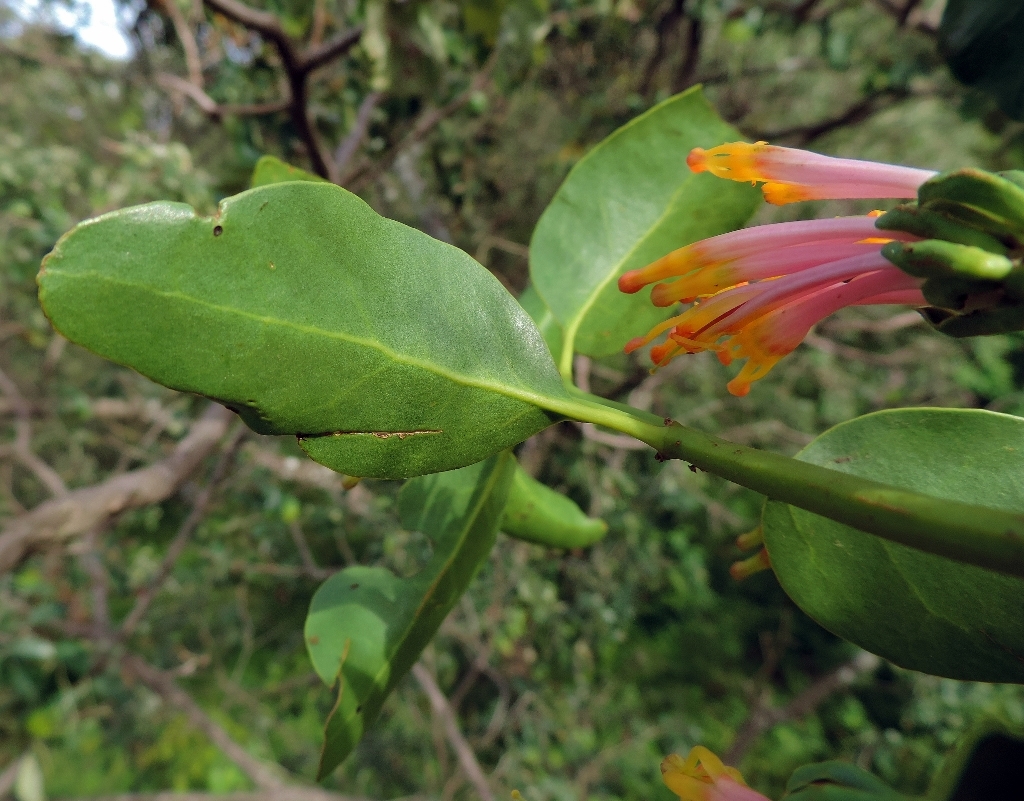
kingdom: Plantae
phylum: Tracheophyta
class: Magnoliopsida
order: Santalales
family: Loranthaceae
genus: Agelanthus
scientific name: Agelanthus subulatus
